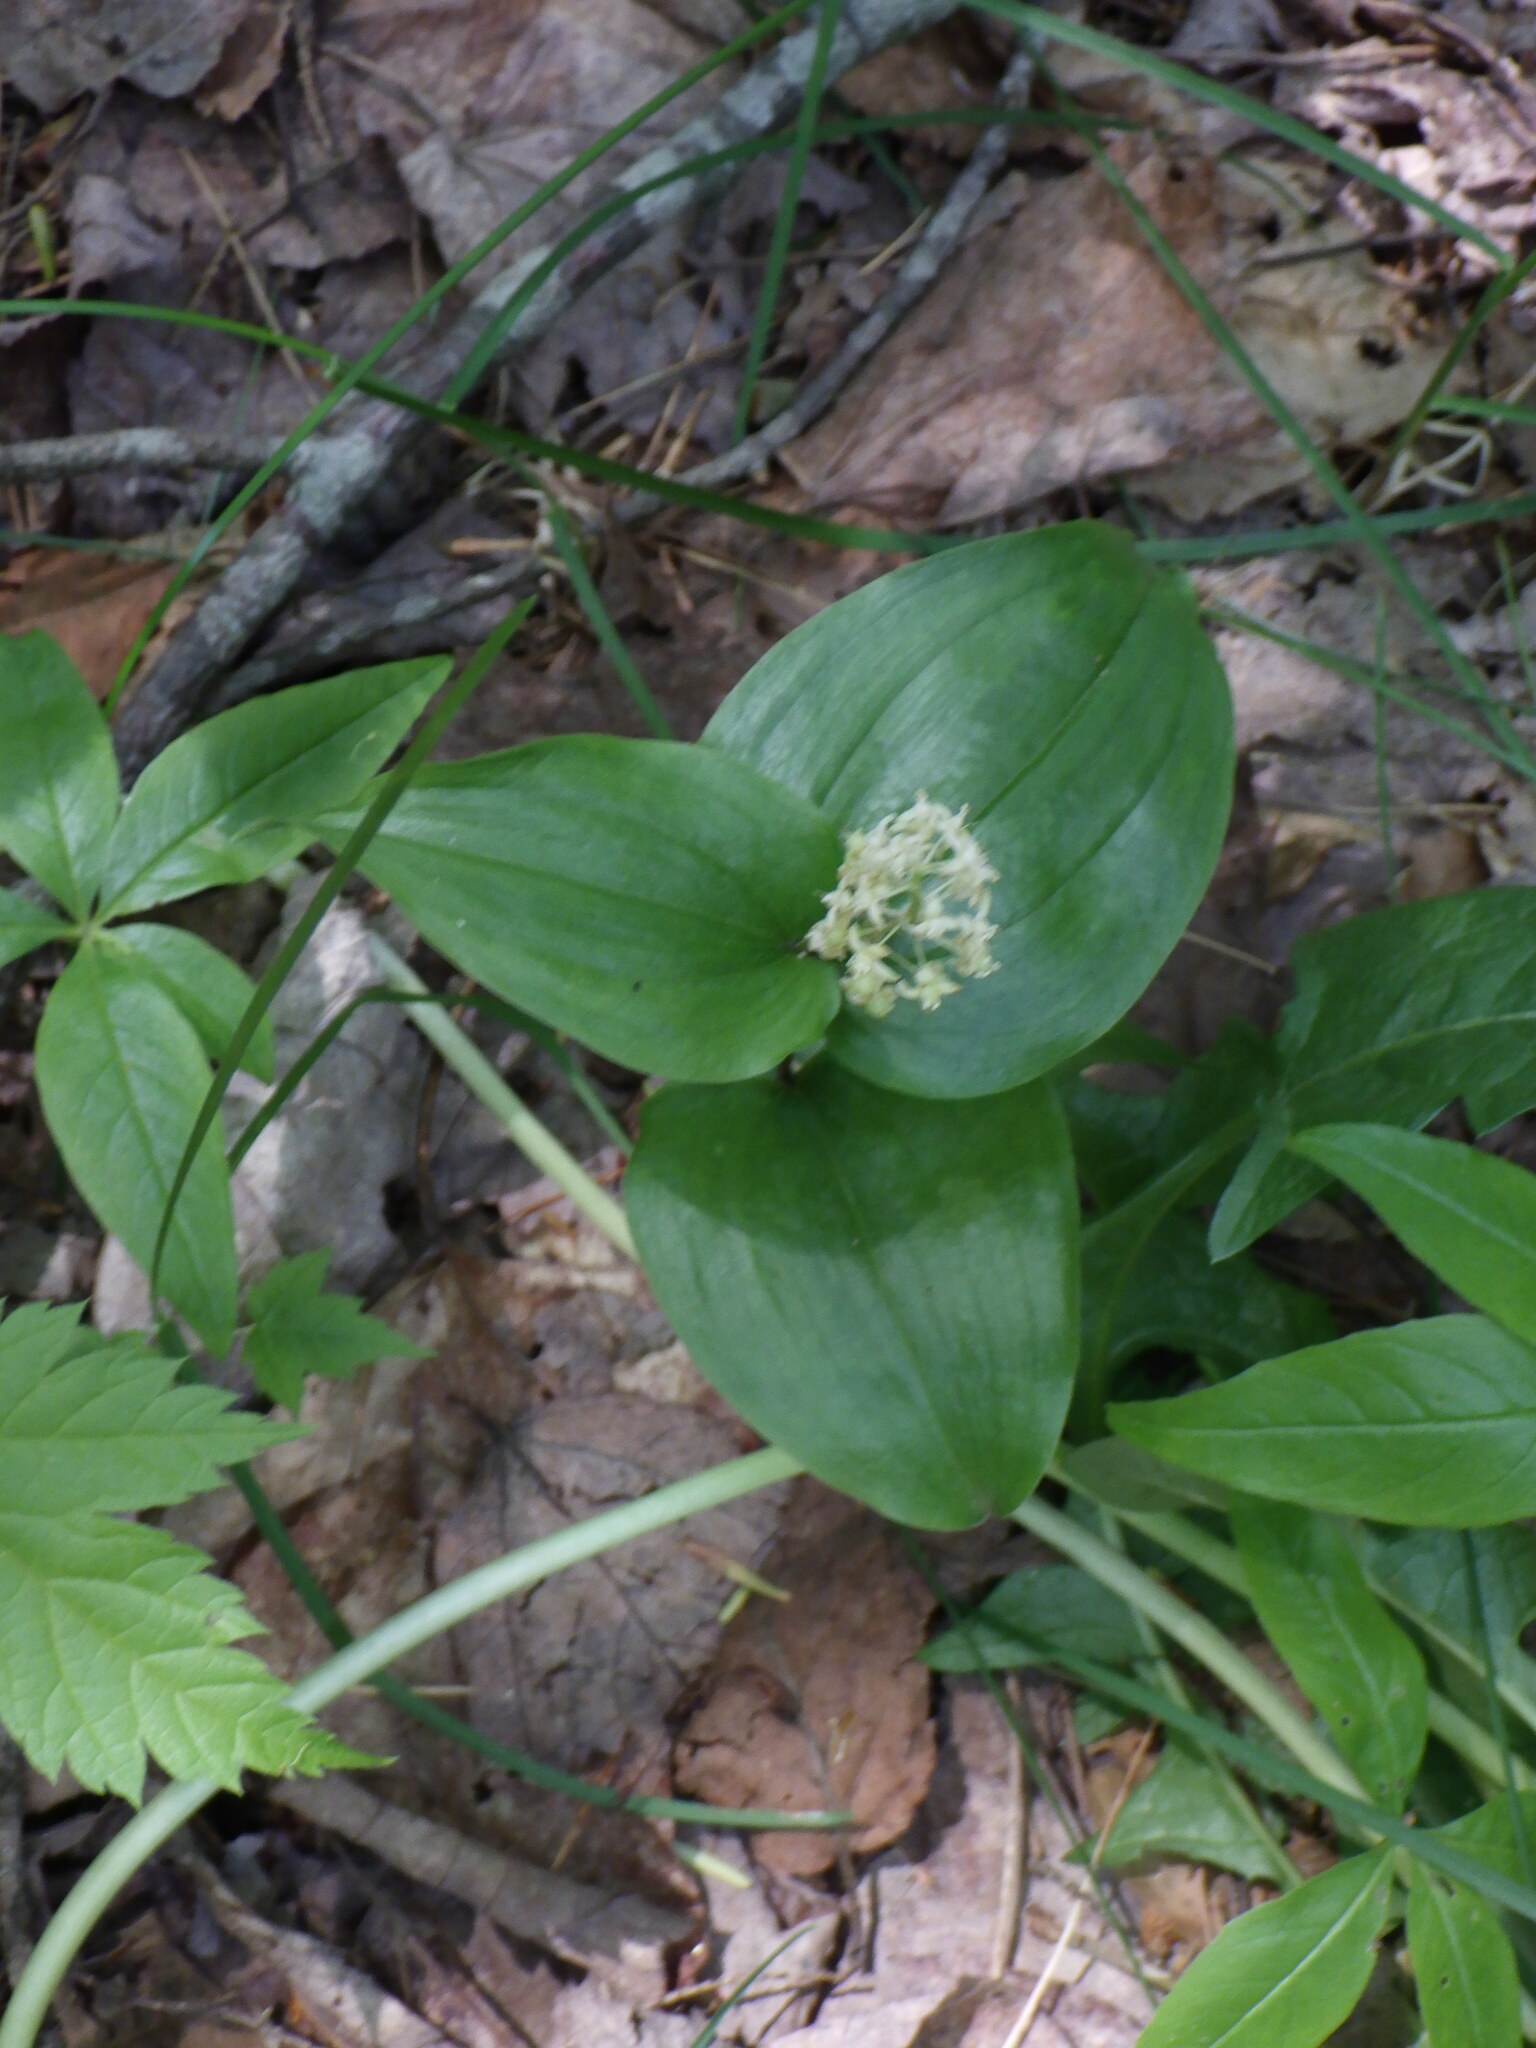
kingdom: Plantae
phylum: Tracheophyta
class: Liliopsida
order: Asparagales
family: Asparagaceae
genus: Maianthemum
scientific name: Maianthemum canadense
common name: False lily-of-the-valley
